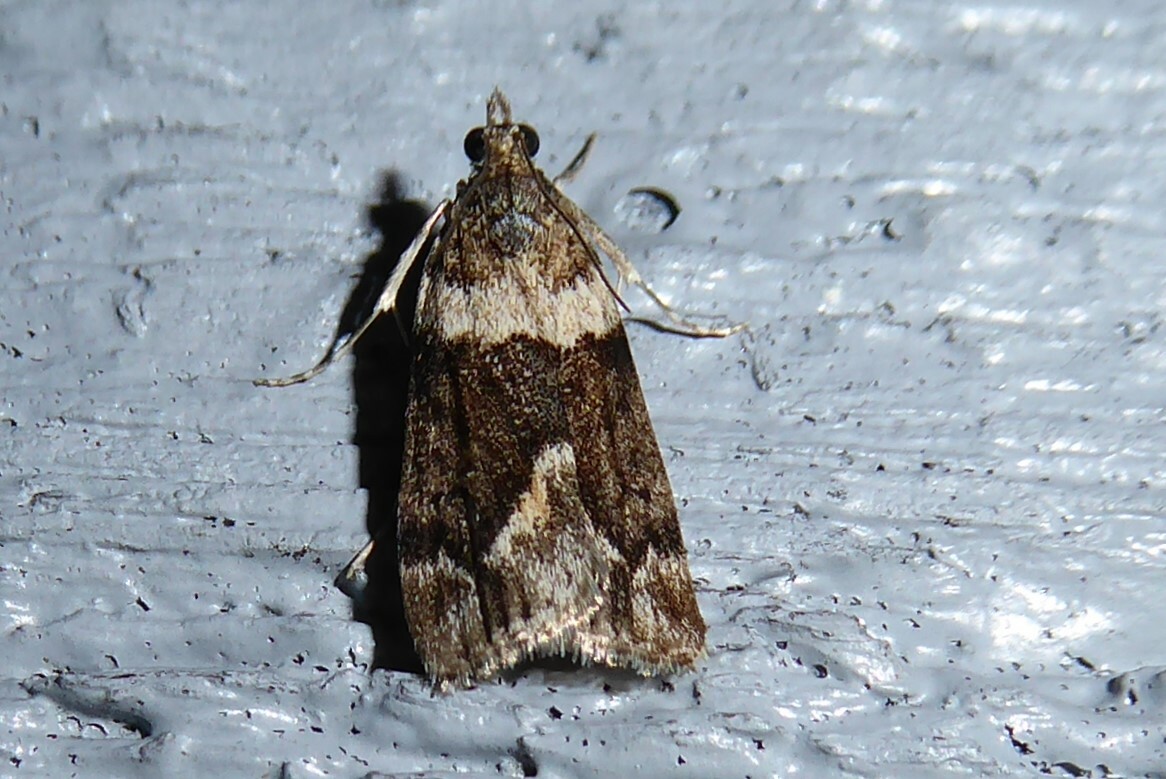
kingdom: Animalia
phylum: Arthropoda
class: Insecta
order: Lepidoptera
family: Crambidae
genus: Eudonia
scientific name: Eudonia submarginalis
